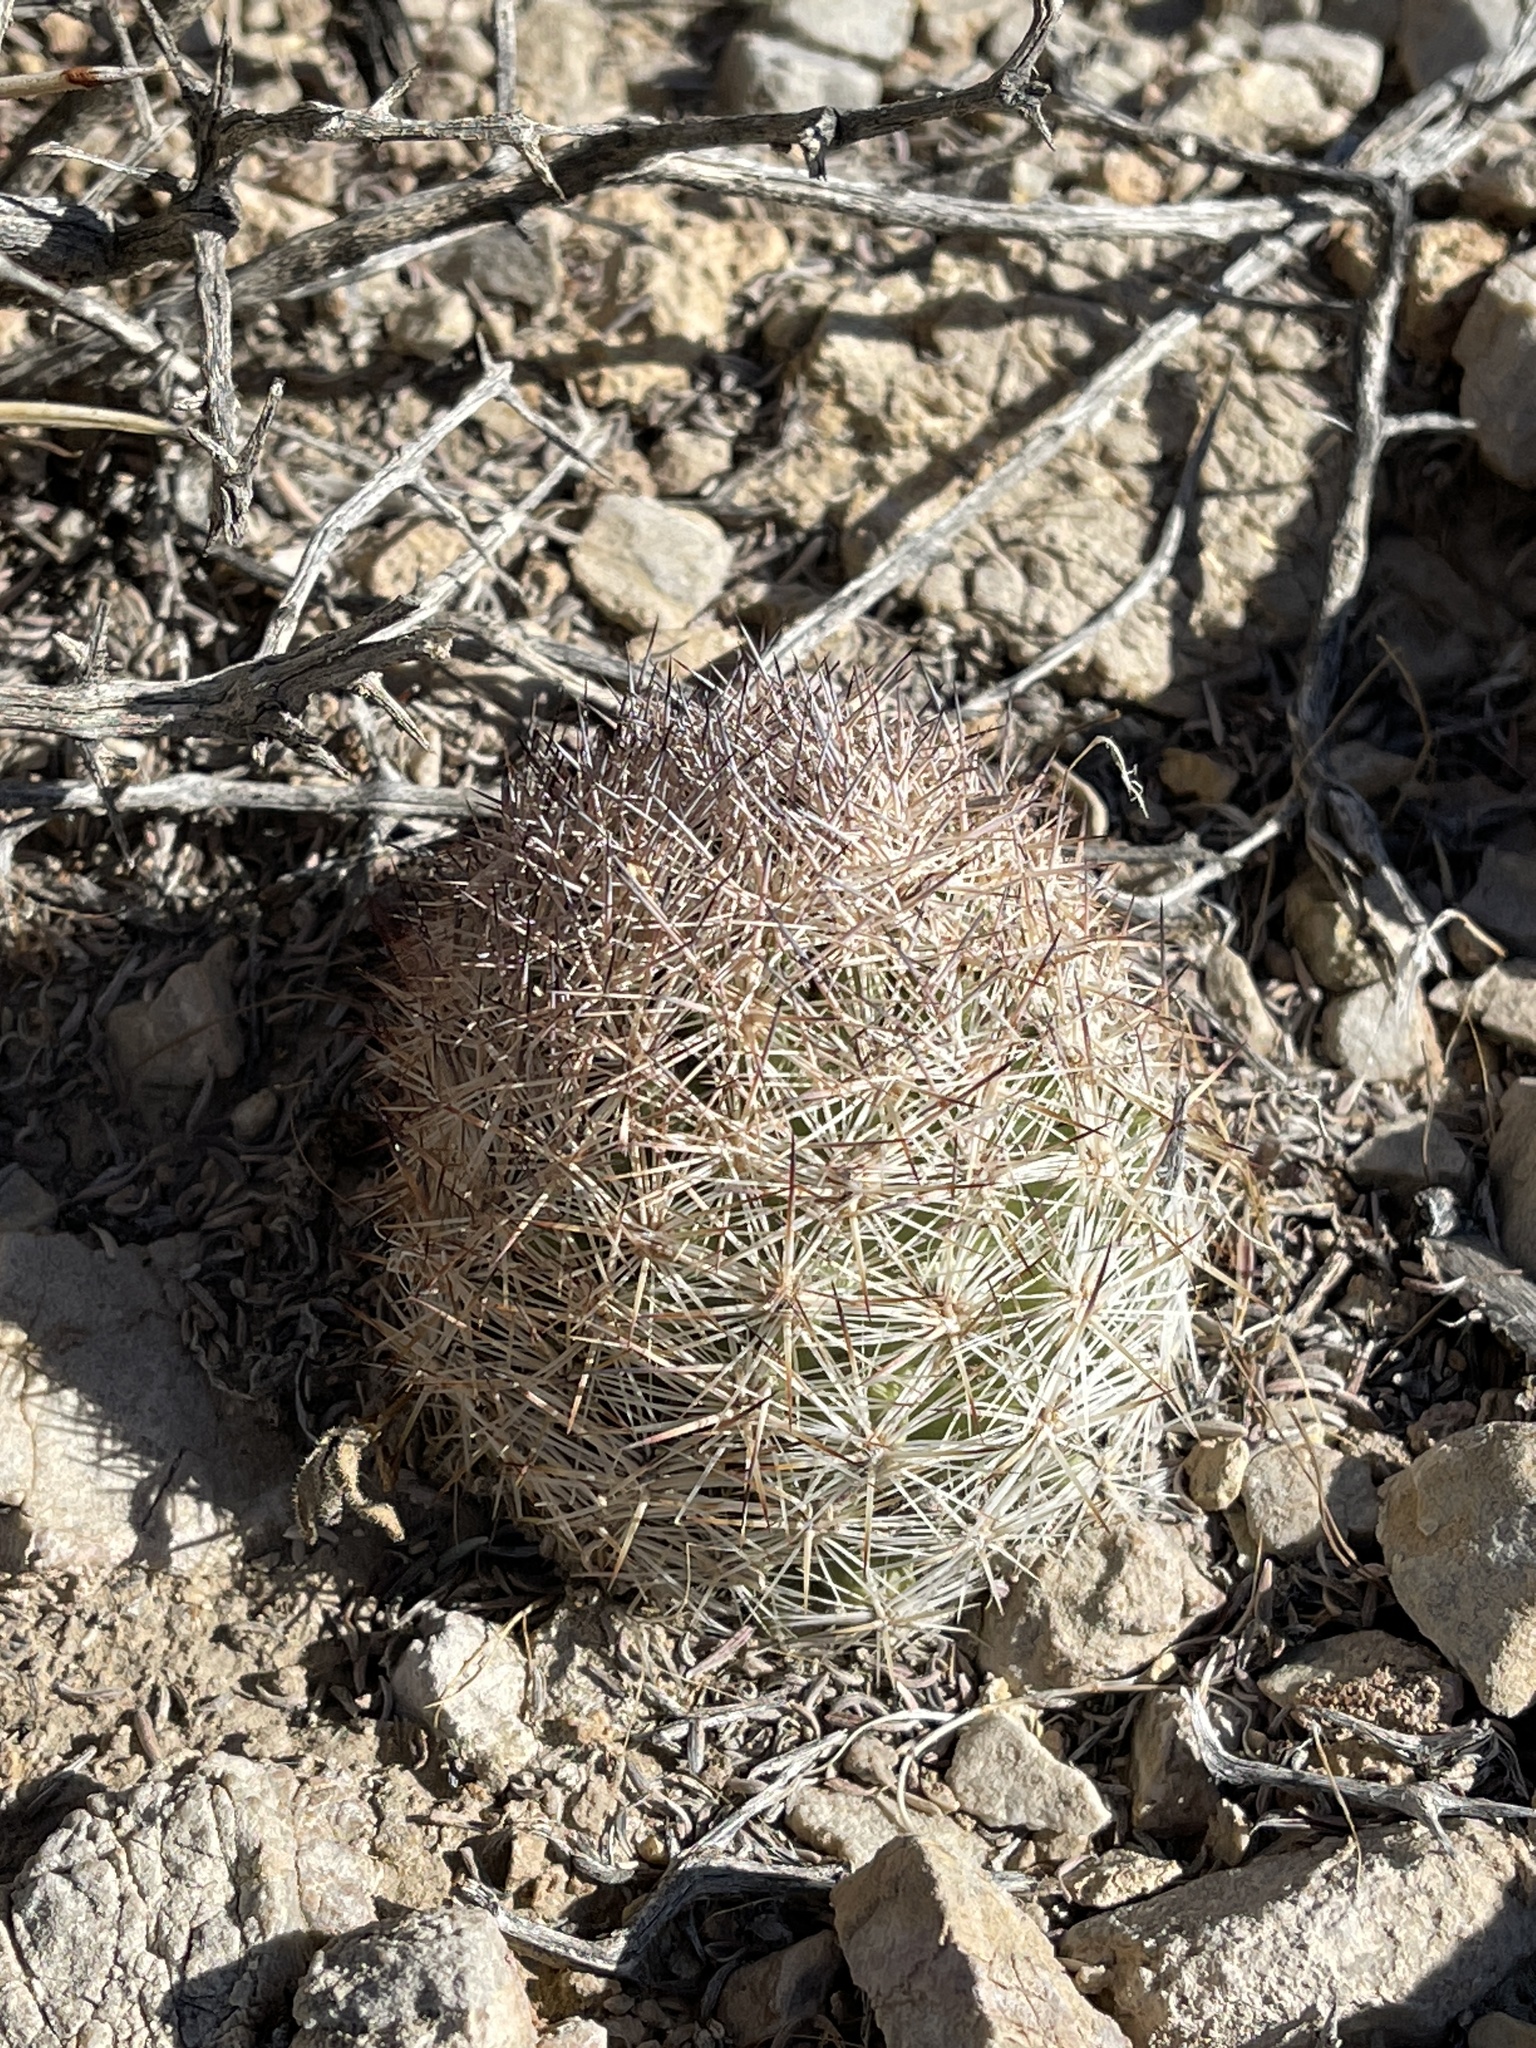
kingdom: Plantae
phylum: Tracheophyta
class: Magnoliopsida
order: Caryophyllales
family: Cactaceae
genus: Pelecyphora
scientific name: Pelecyphora vivipara
